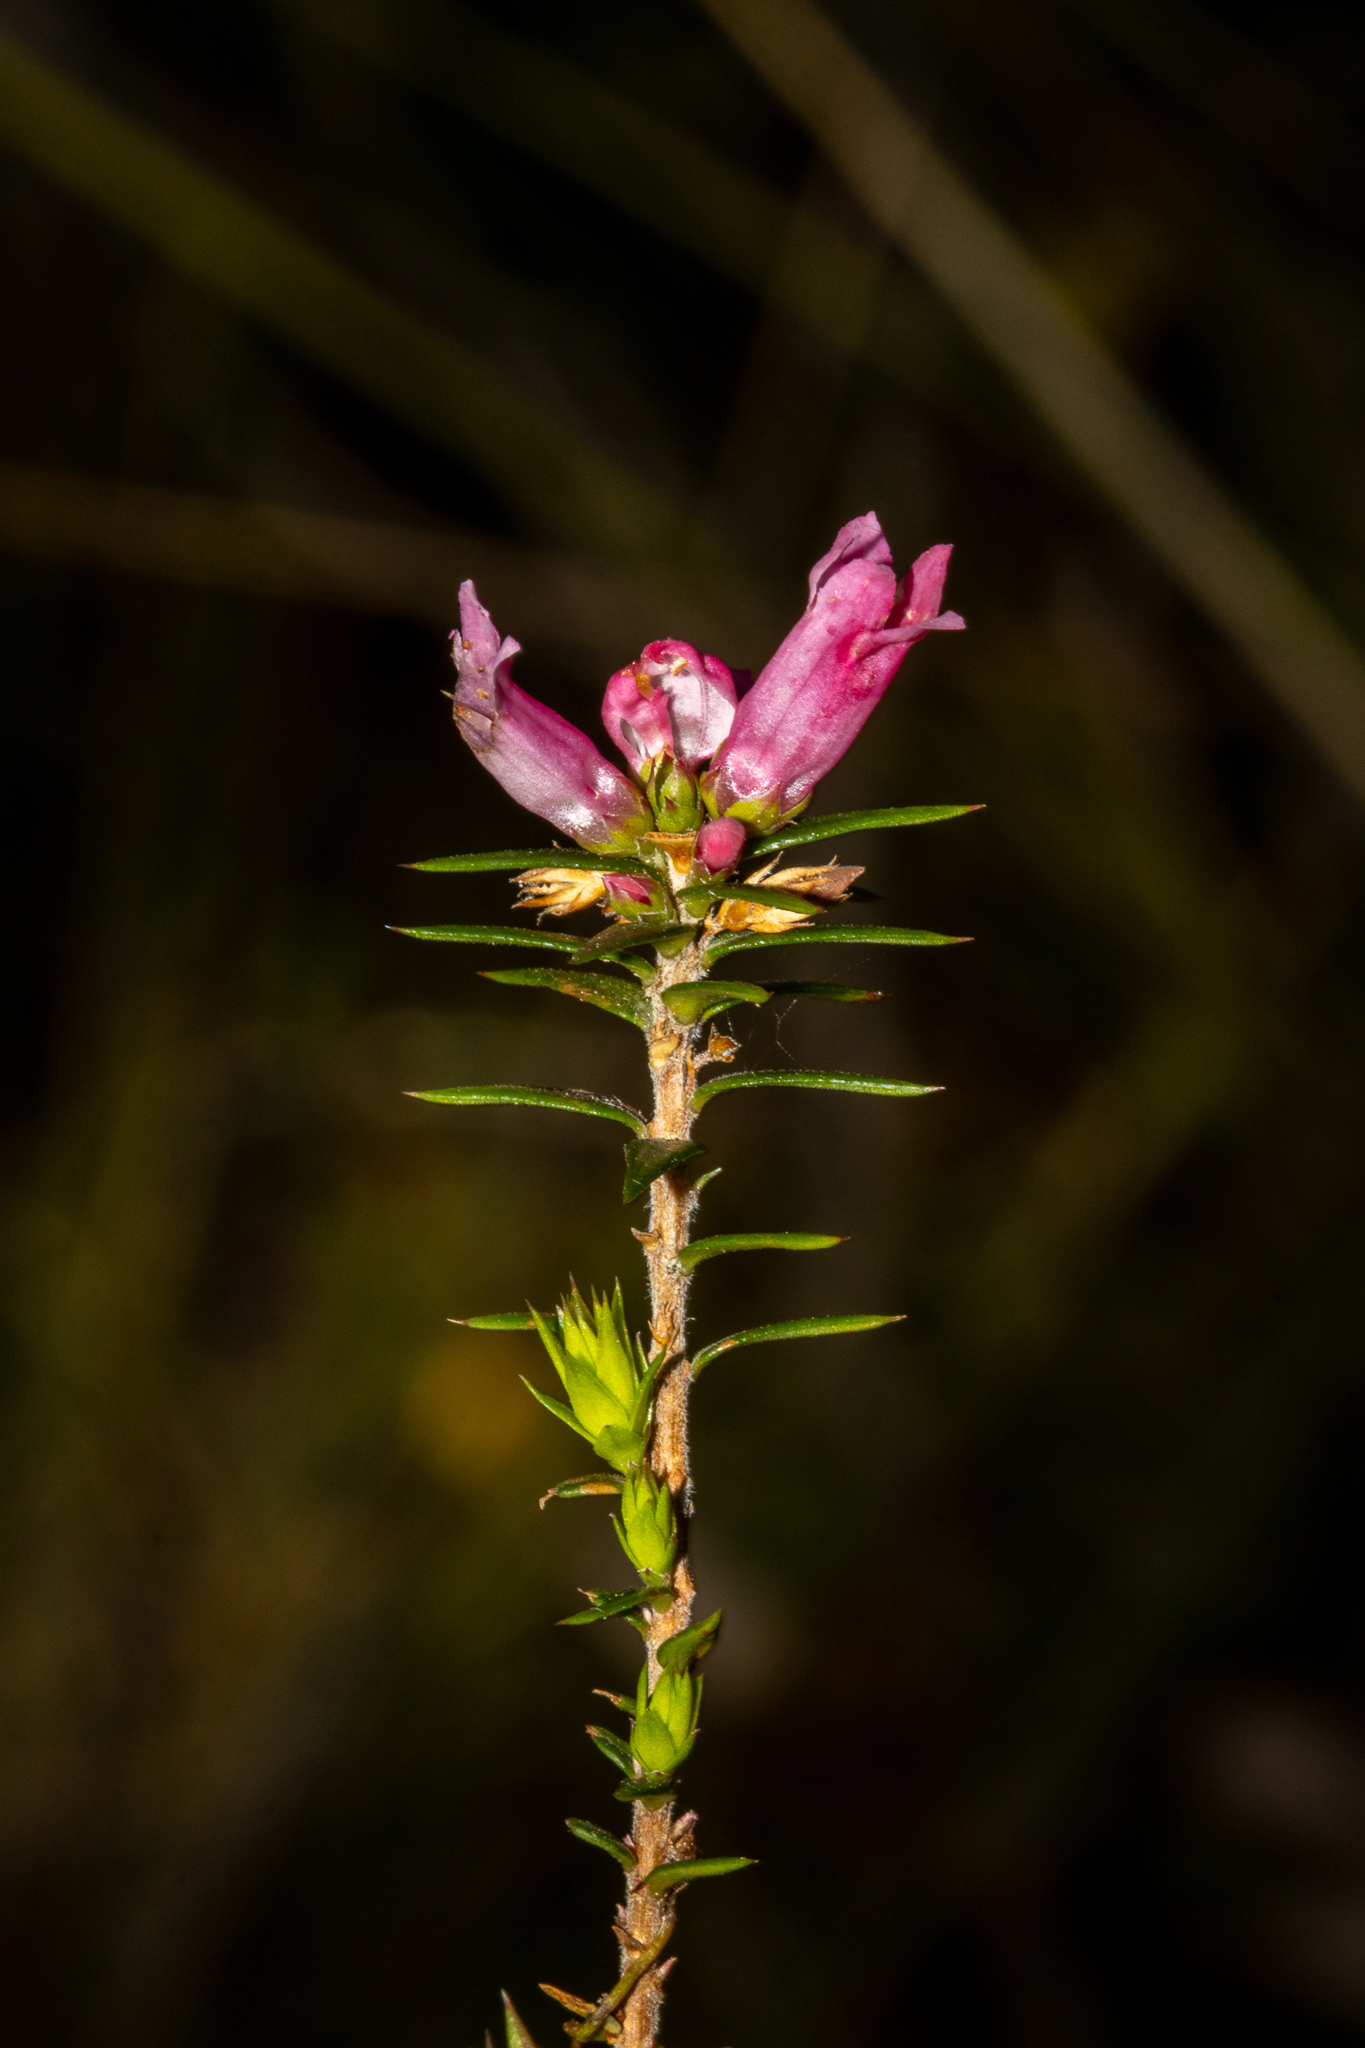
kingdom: Plantae
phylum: Tracheophyta
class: Magnoliopsida
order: Ericales
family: Ericaceae
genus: Epacris
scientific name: Epacris impressa
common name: Common-heath
